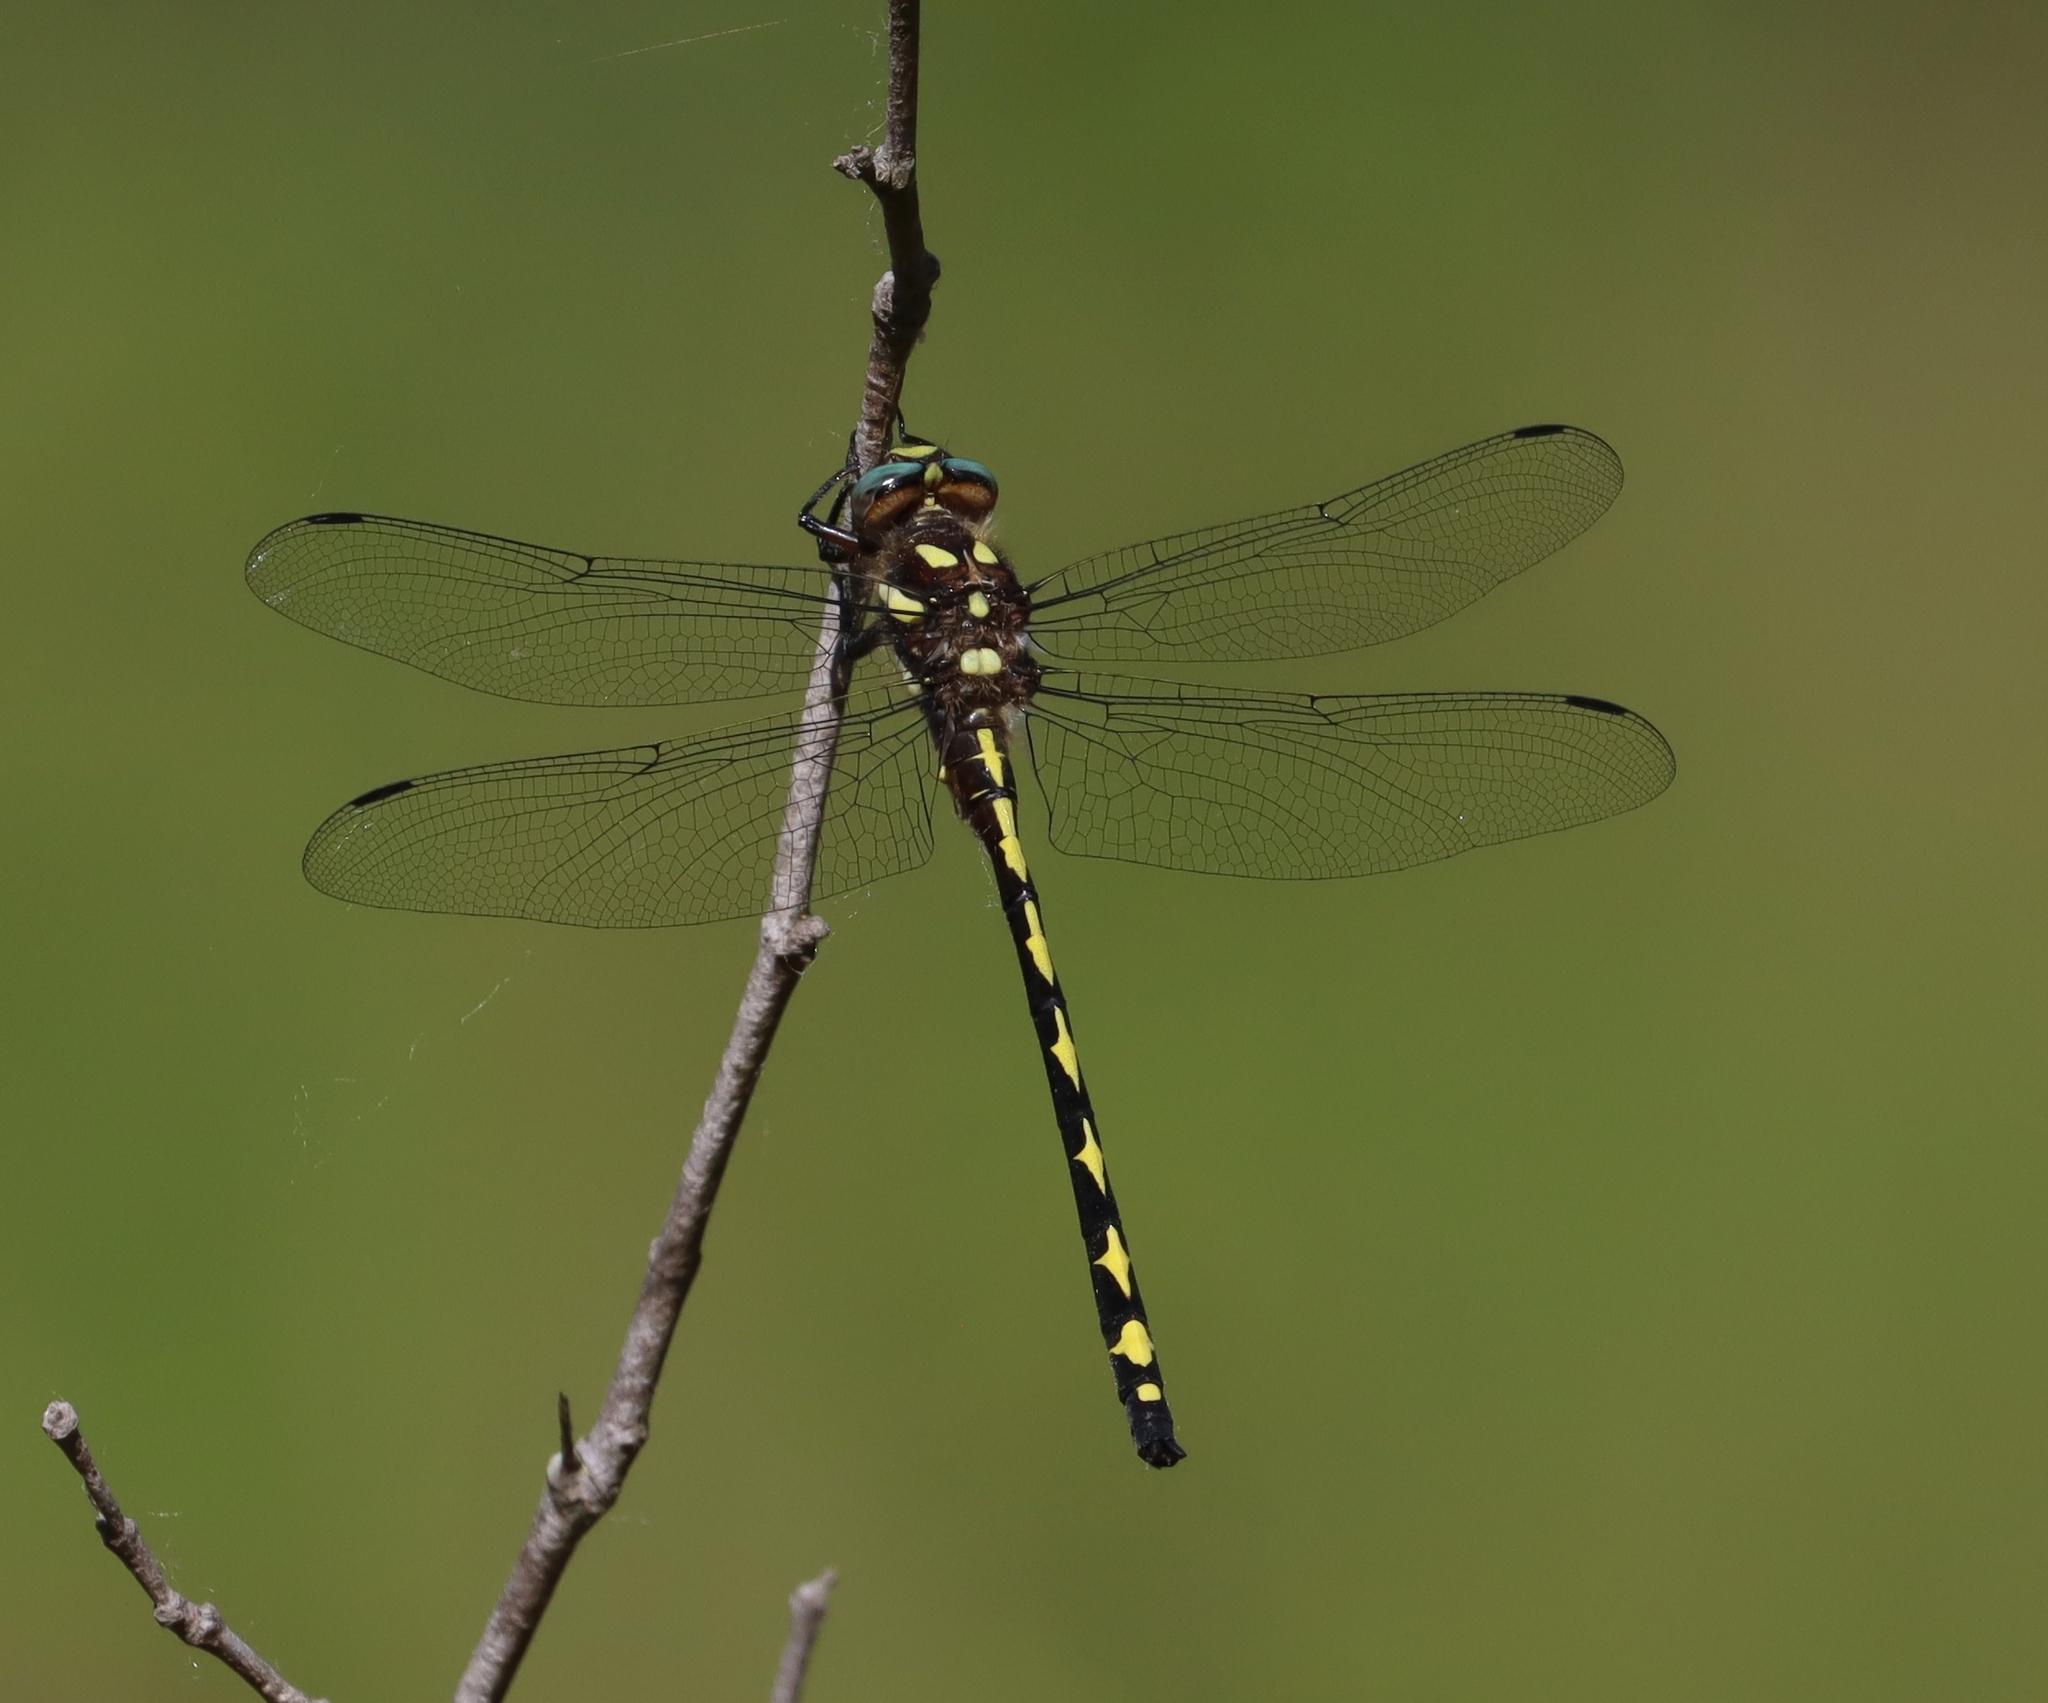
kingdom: Animalia
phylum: Arthropoda
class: Insecta
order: Odonata
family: Cordulegastridae
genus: Cordulegaster
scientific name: Cordulegaster obliqua
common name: Arrowhead spiketail
